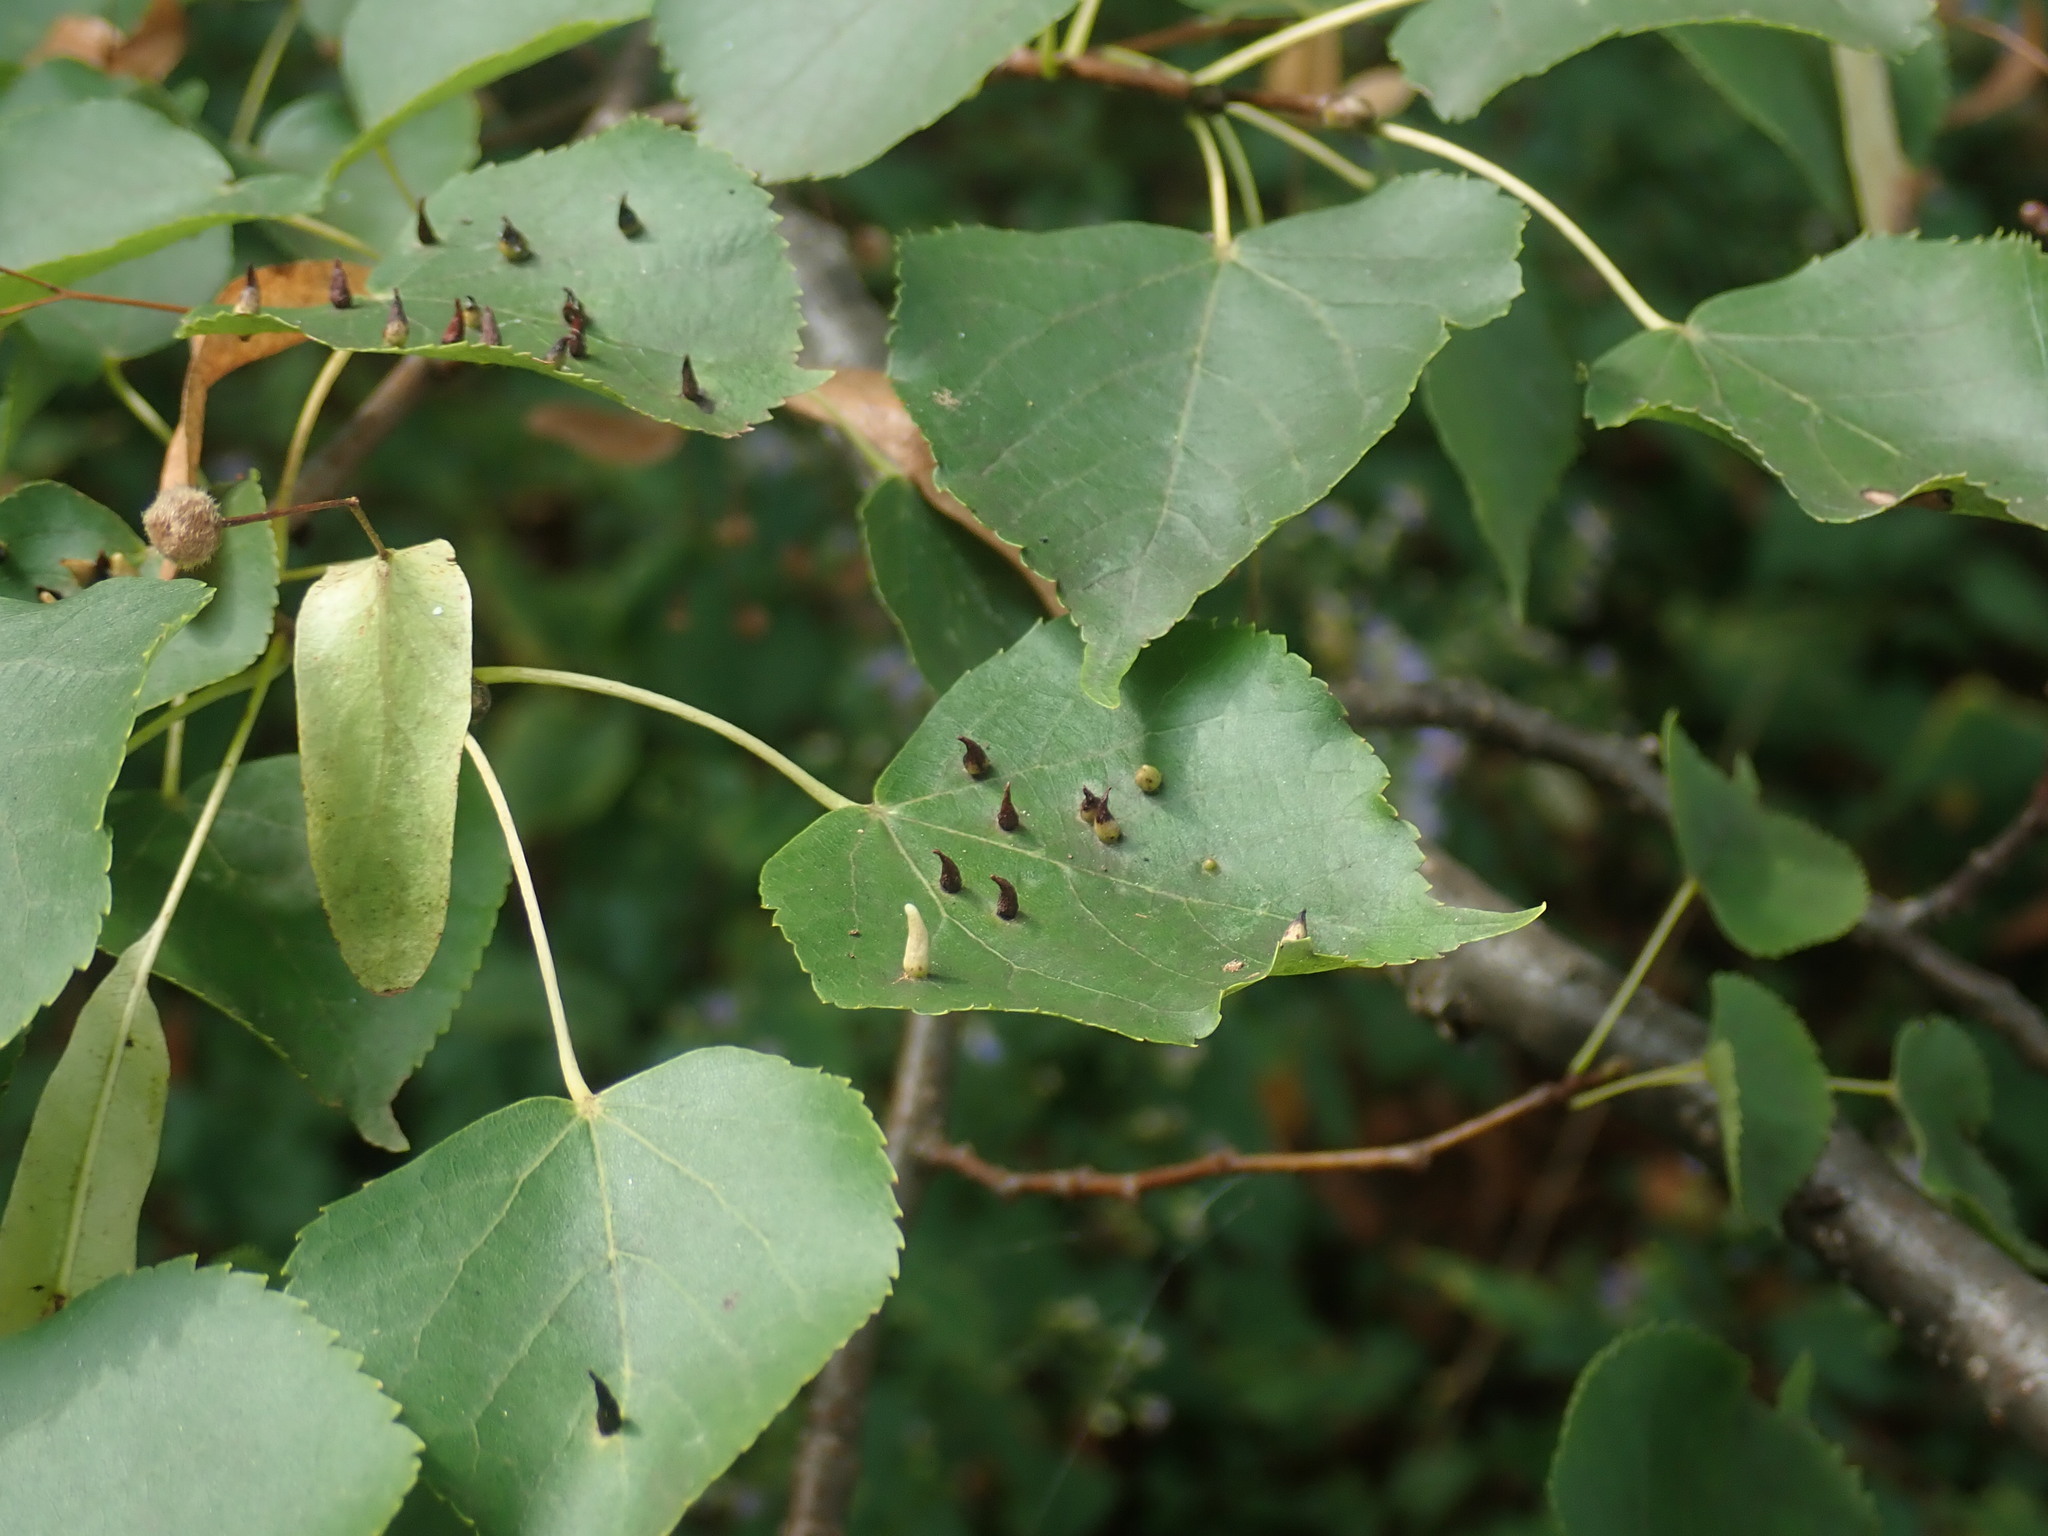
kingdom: Animalia
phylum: Arthropoda
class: Arachnida
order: Trombidiformes
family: Eriophyidae
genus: Eriophyes
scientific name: Eriophyes tiliae
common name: Red nail gall mite
